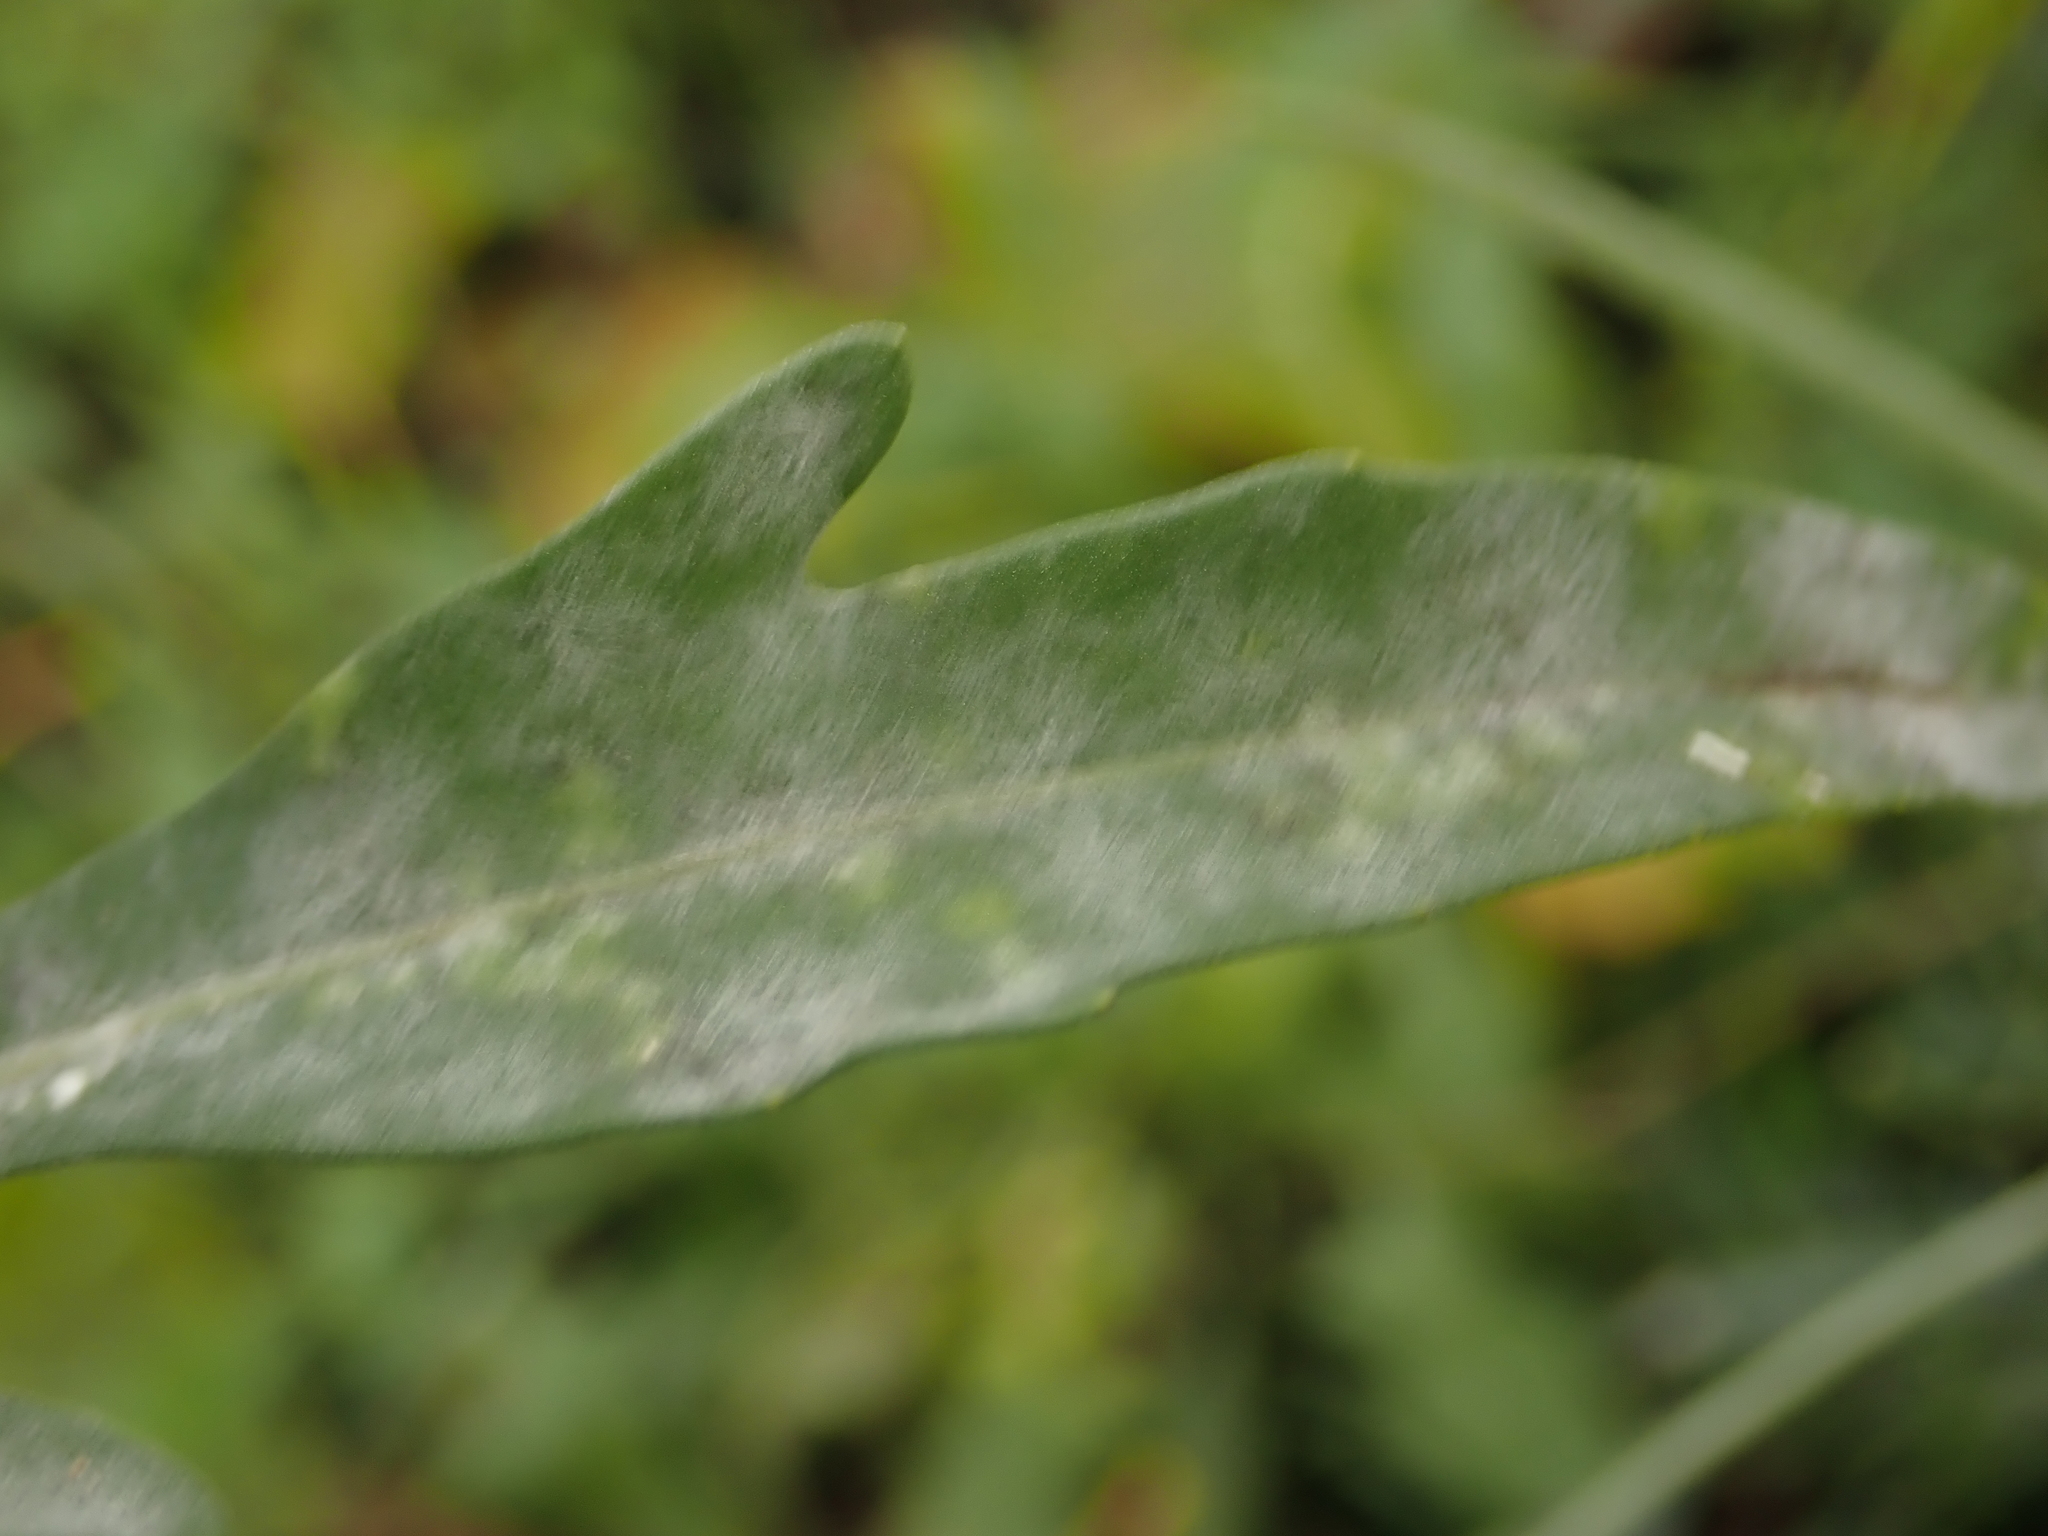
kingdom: Chromista
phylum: Oomycota
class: Peronosporea
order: Albuginales
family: Albuginaceae
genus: Albugo
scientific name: Albugo candida
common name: Crucifer white blister
